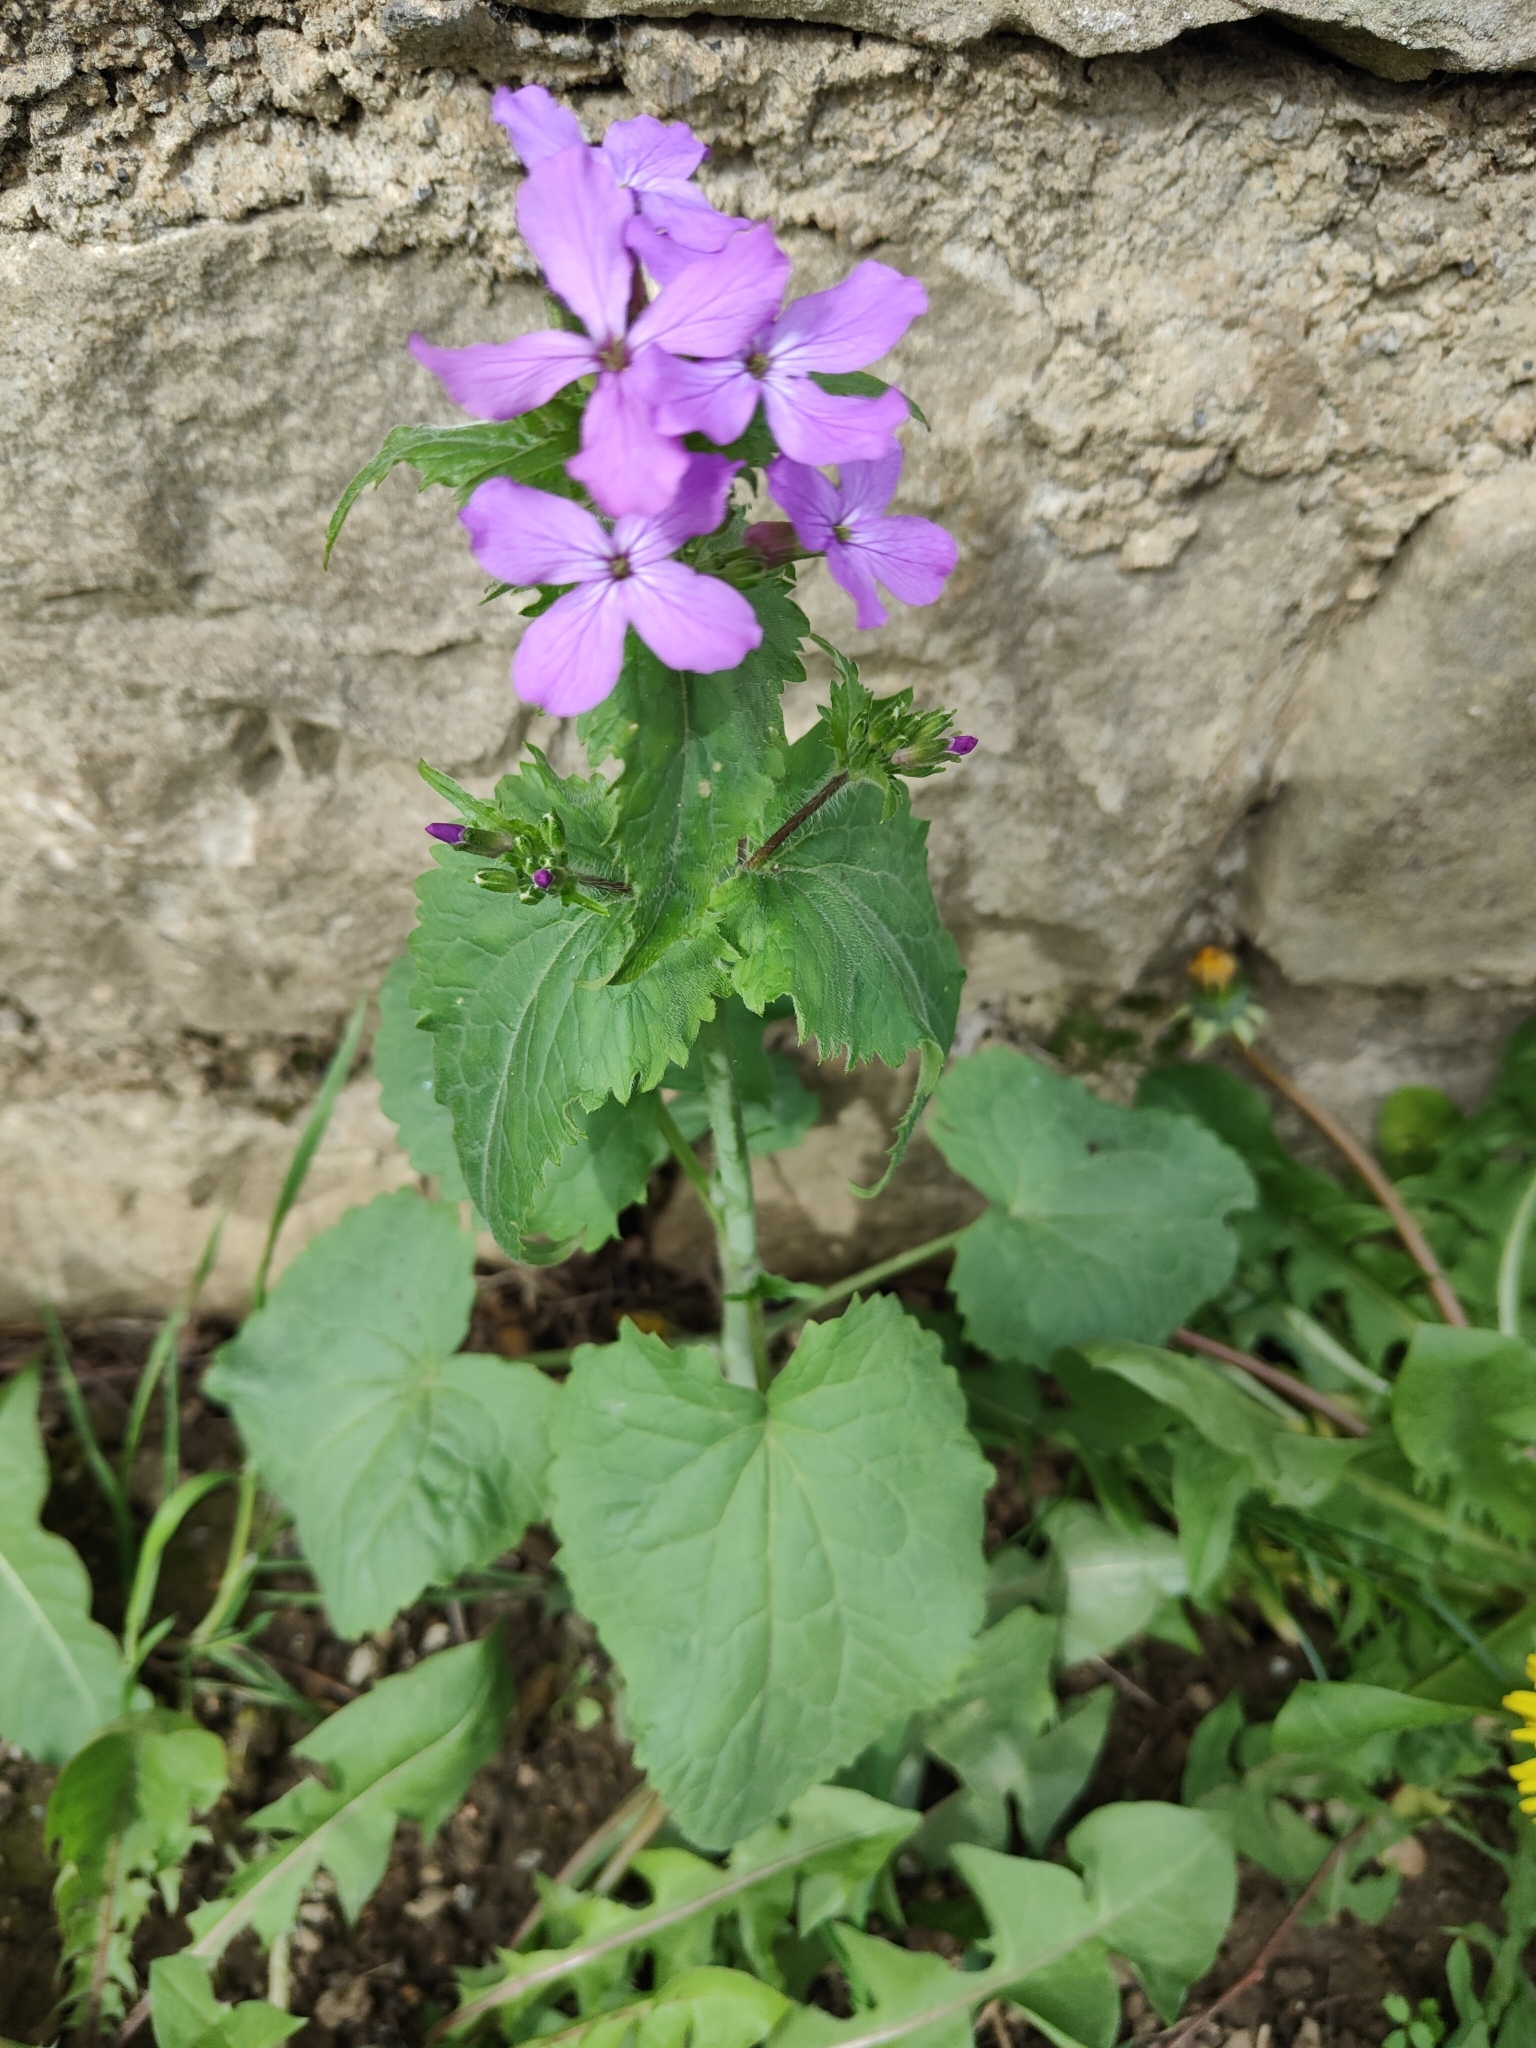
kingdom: Plantae
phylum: Tracheophyta
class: Magnoliopsida
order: Brassicales
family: Brassicaceae
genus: Lunaria
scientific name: Lunaria annua
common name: Honesty
